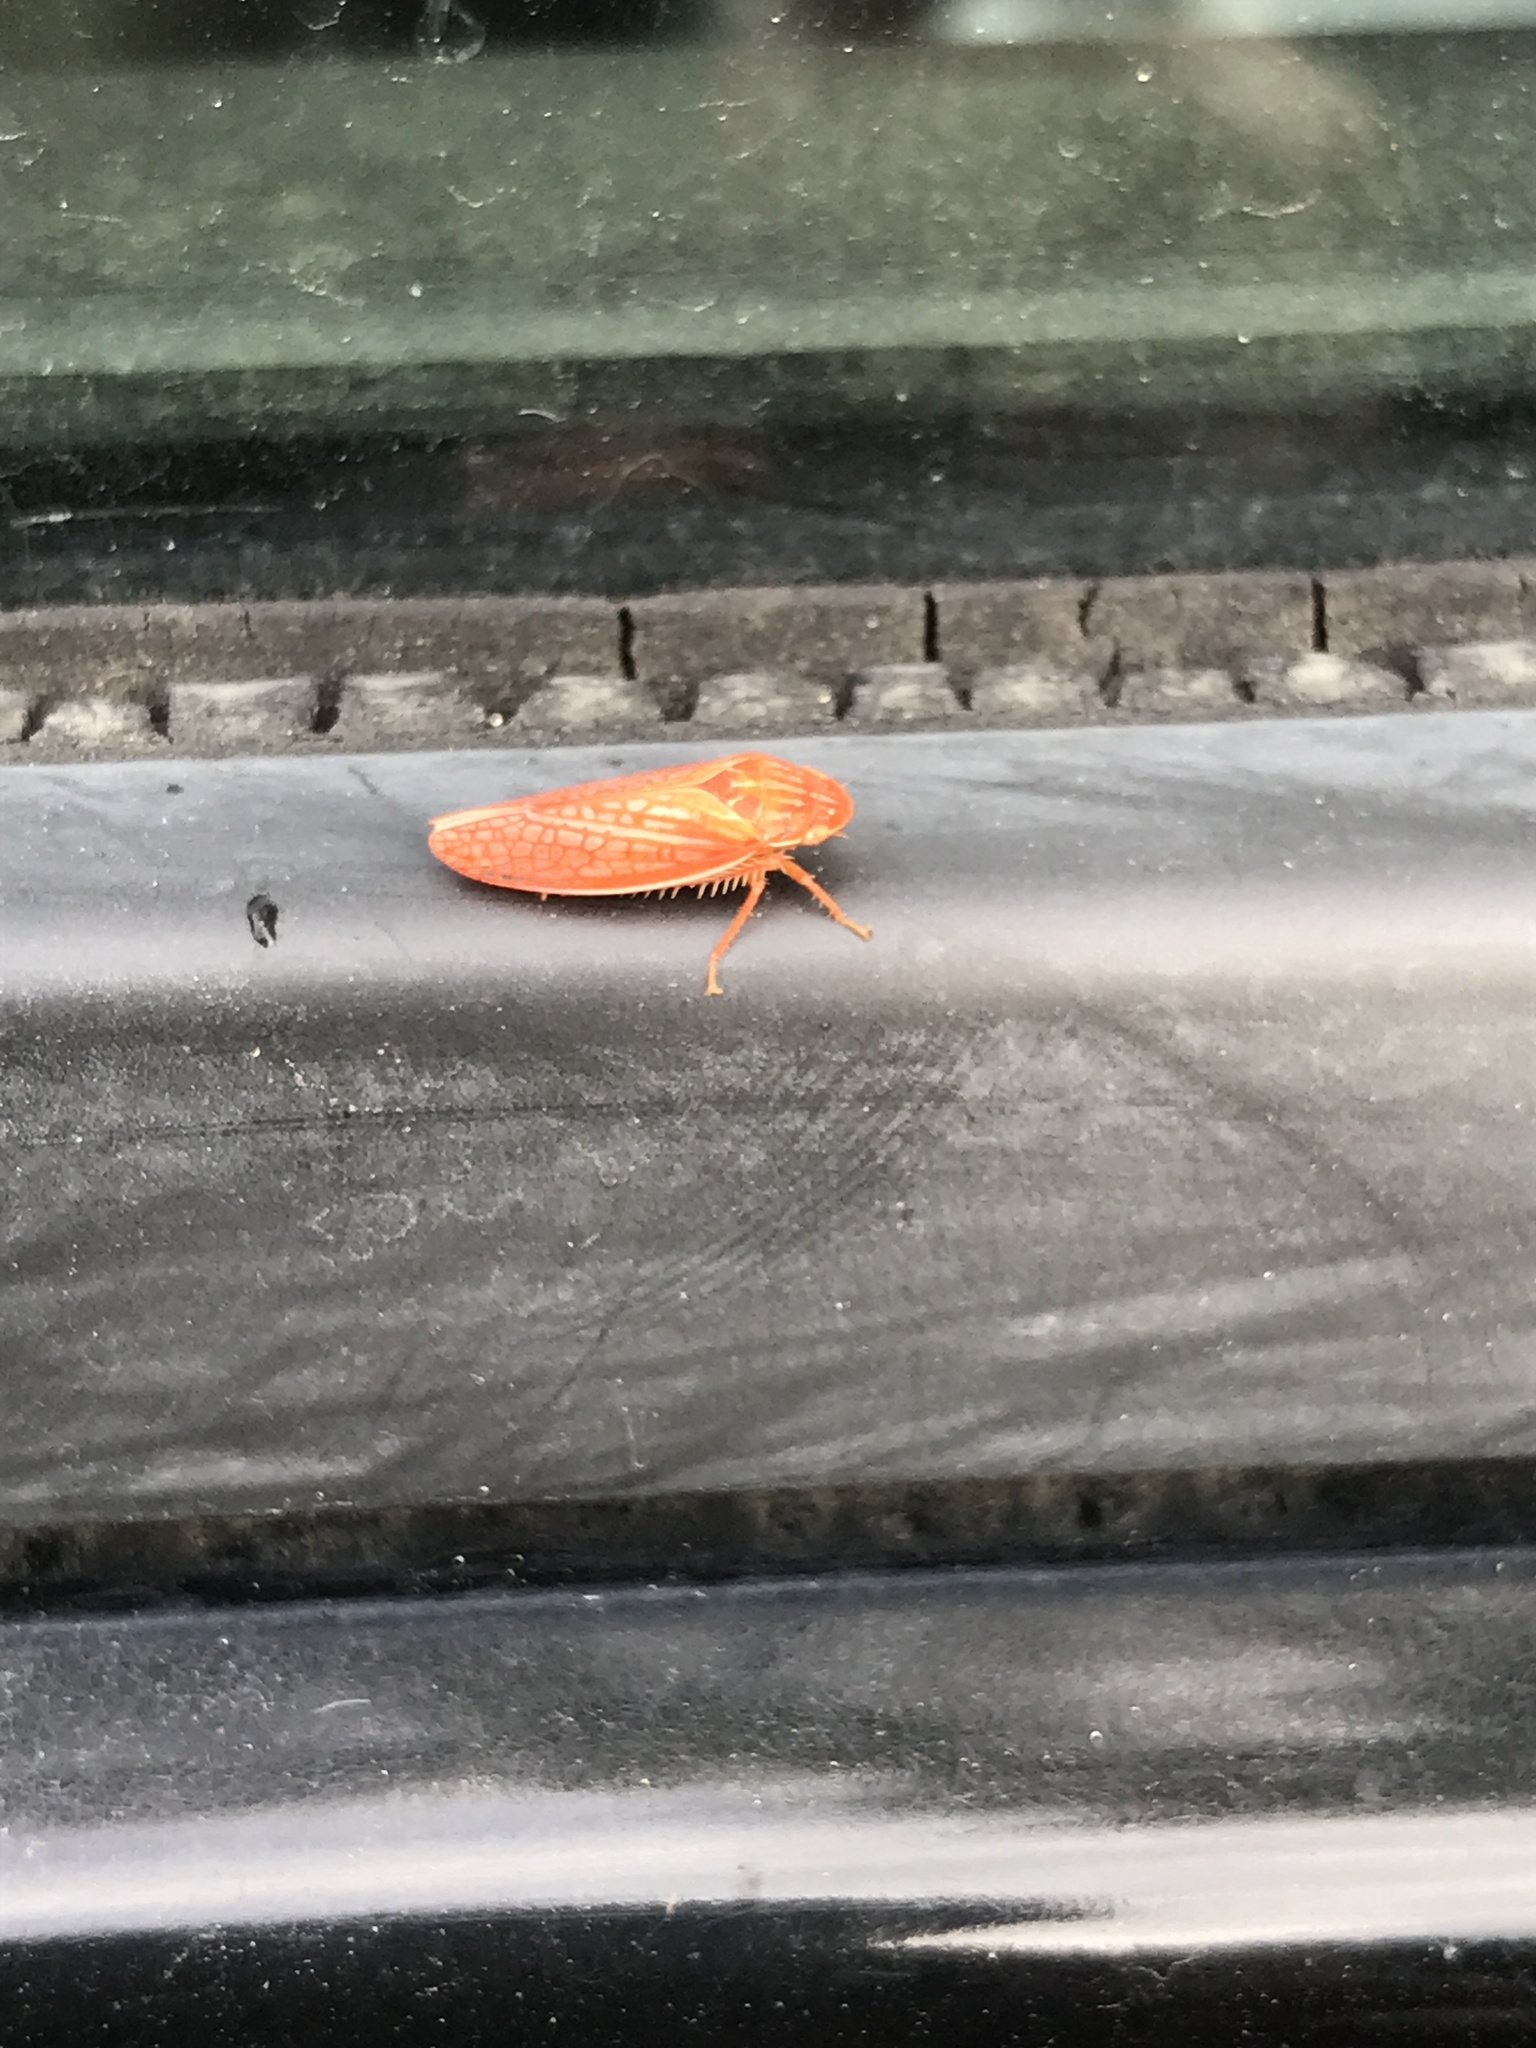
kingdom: Animalia
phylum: Arthropoda
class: Insecta
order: Hemiptera
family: Cicadellidae
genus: Gyponana
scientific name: Gyponana gladia
